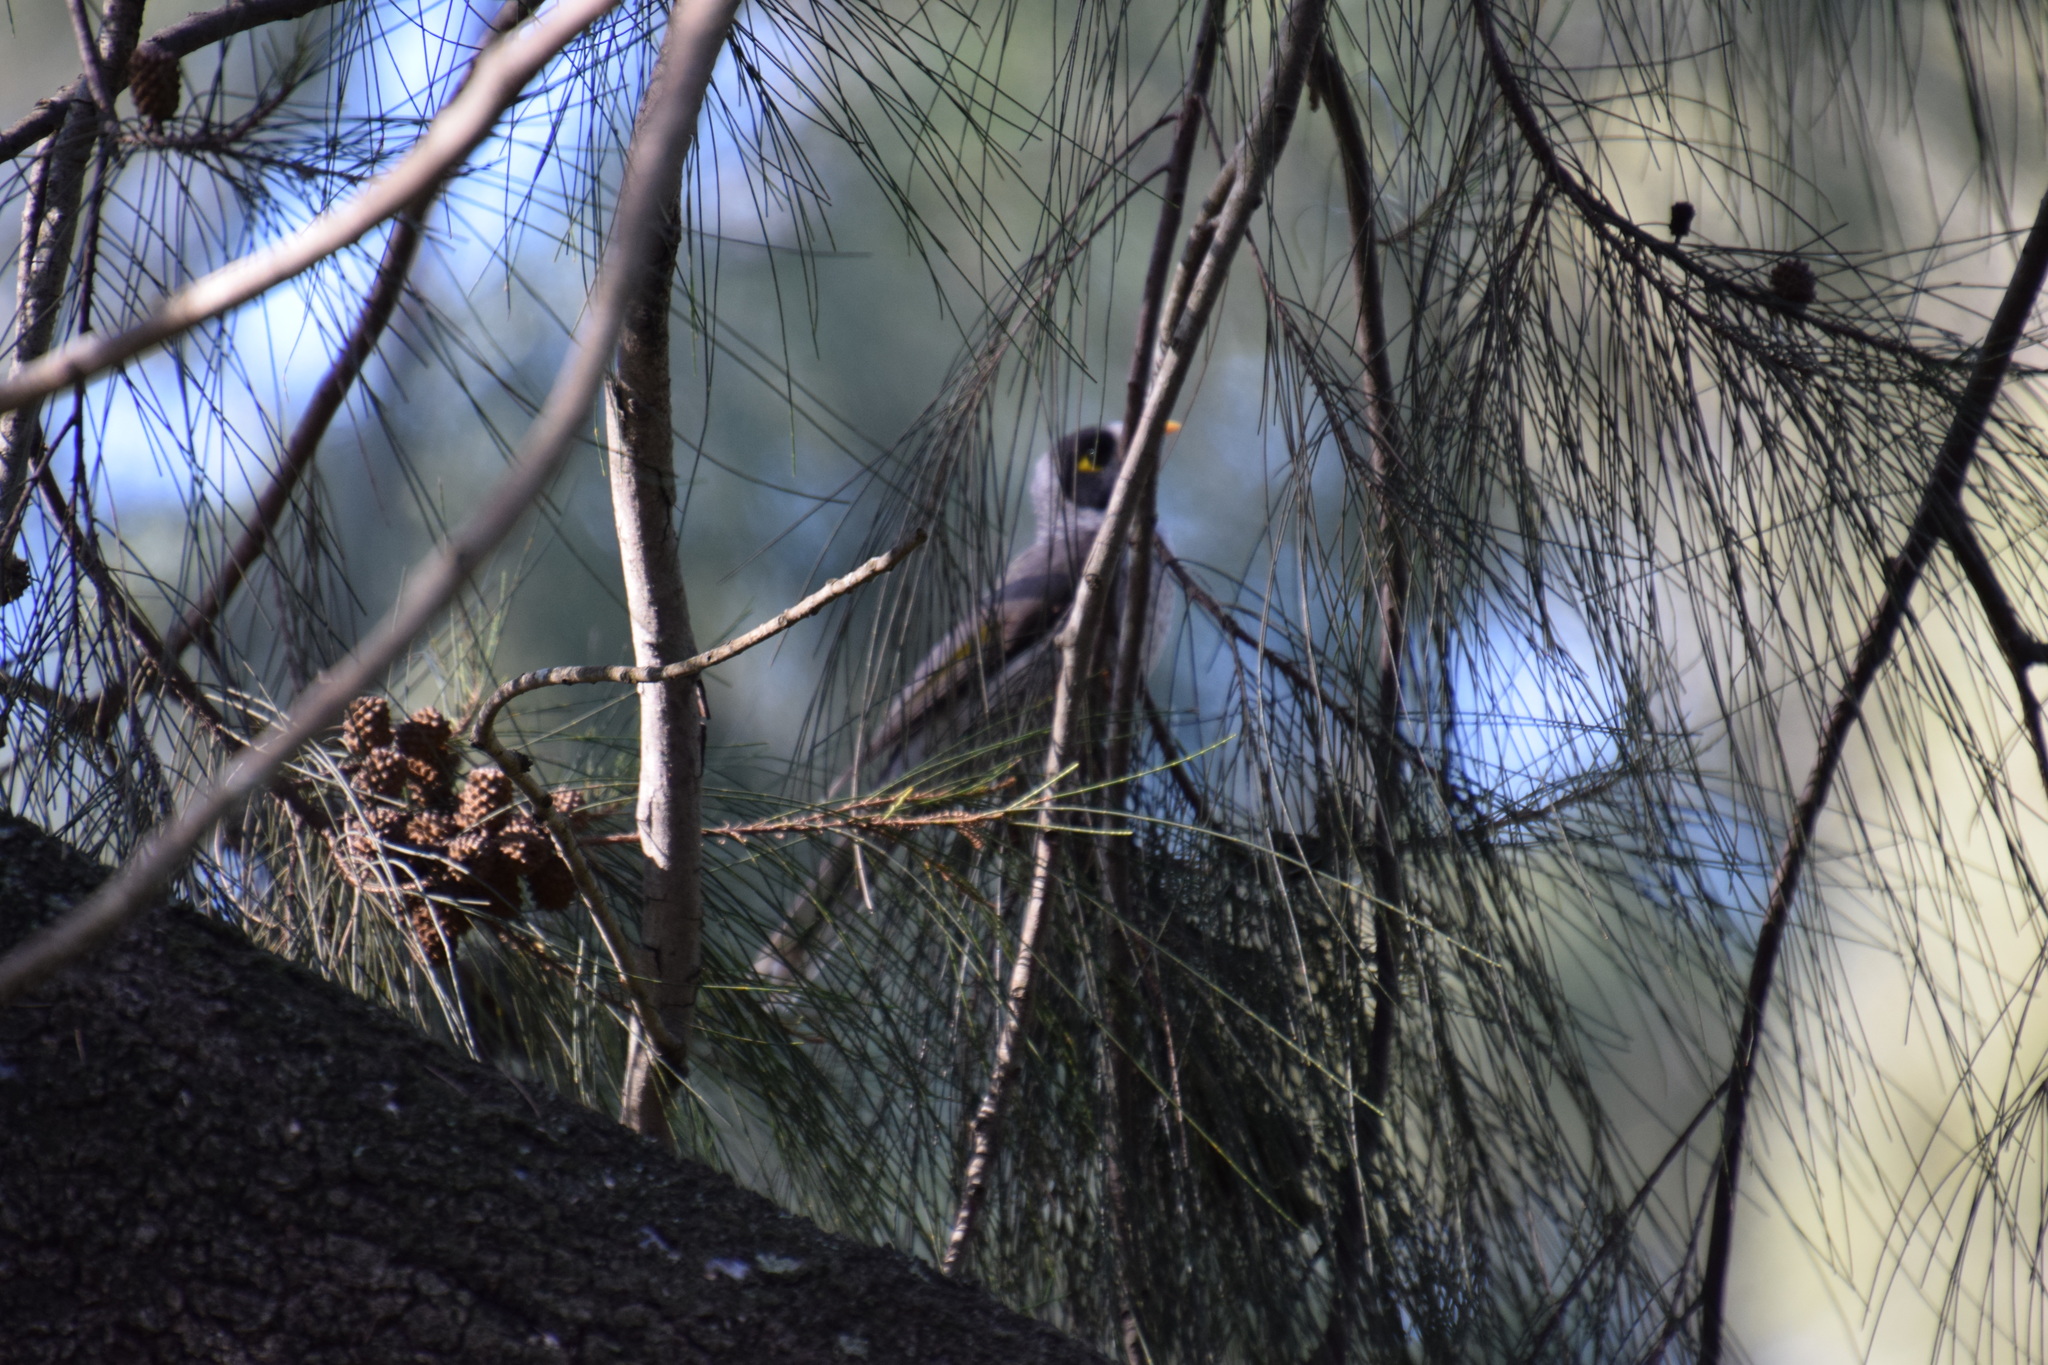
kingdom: Animalia
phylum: Chordata
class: Aves
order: Passeriformes
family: Meliphagidae
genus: Manorina
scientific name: Manorina melanocephala
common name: Noisy miner
